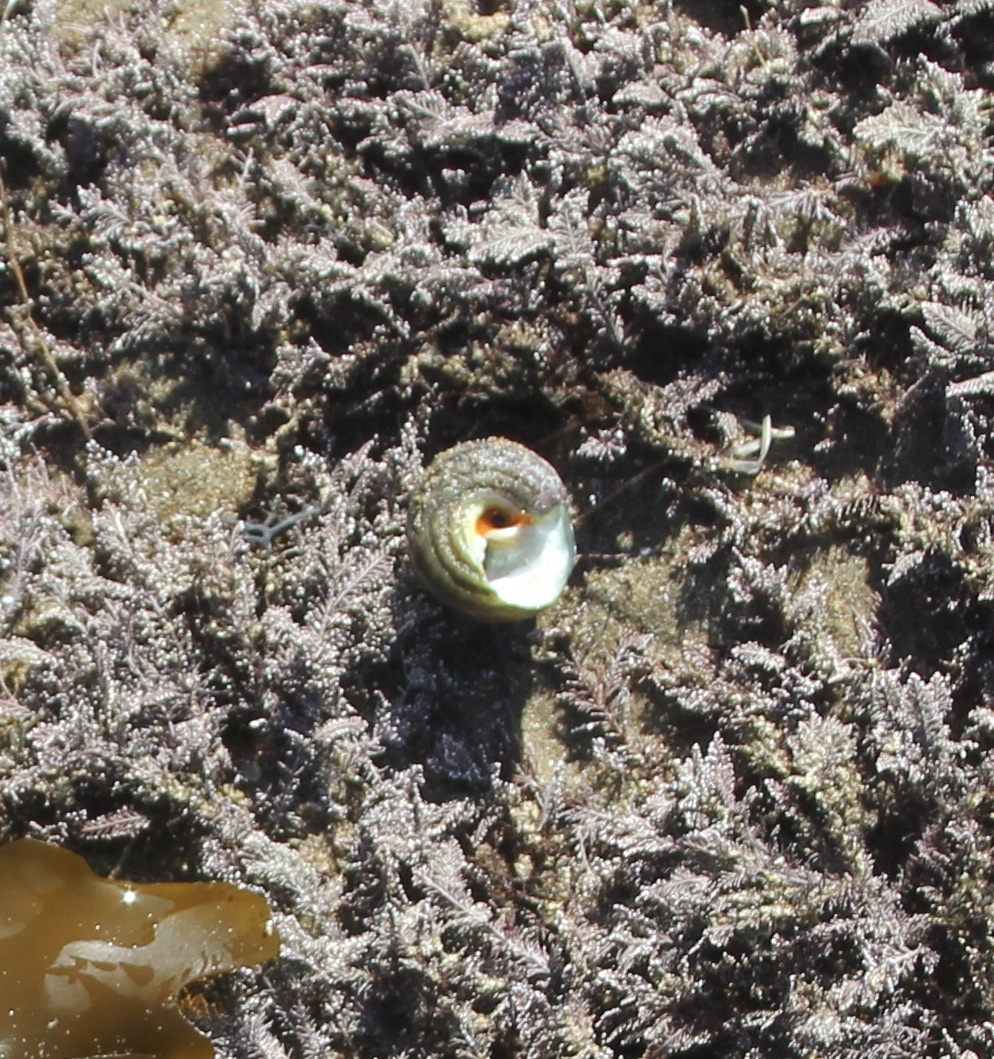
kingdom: Animalia
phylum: Mollusca
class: Gastropoda
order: Trochida
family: Tegulidae
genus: Tegula
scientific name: Tegula aureotincta
